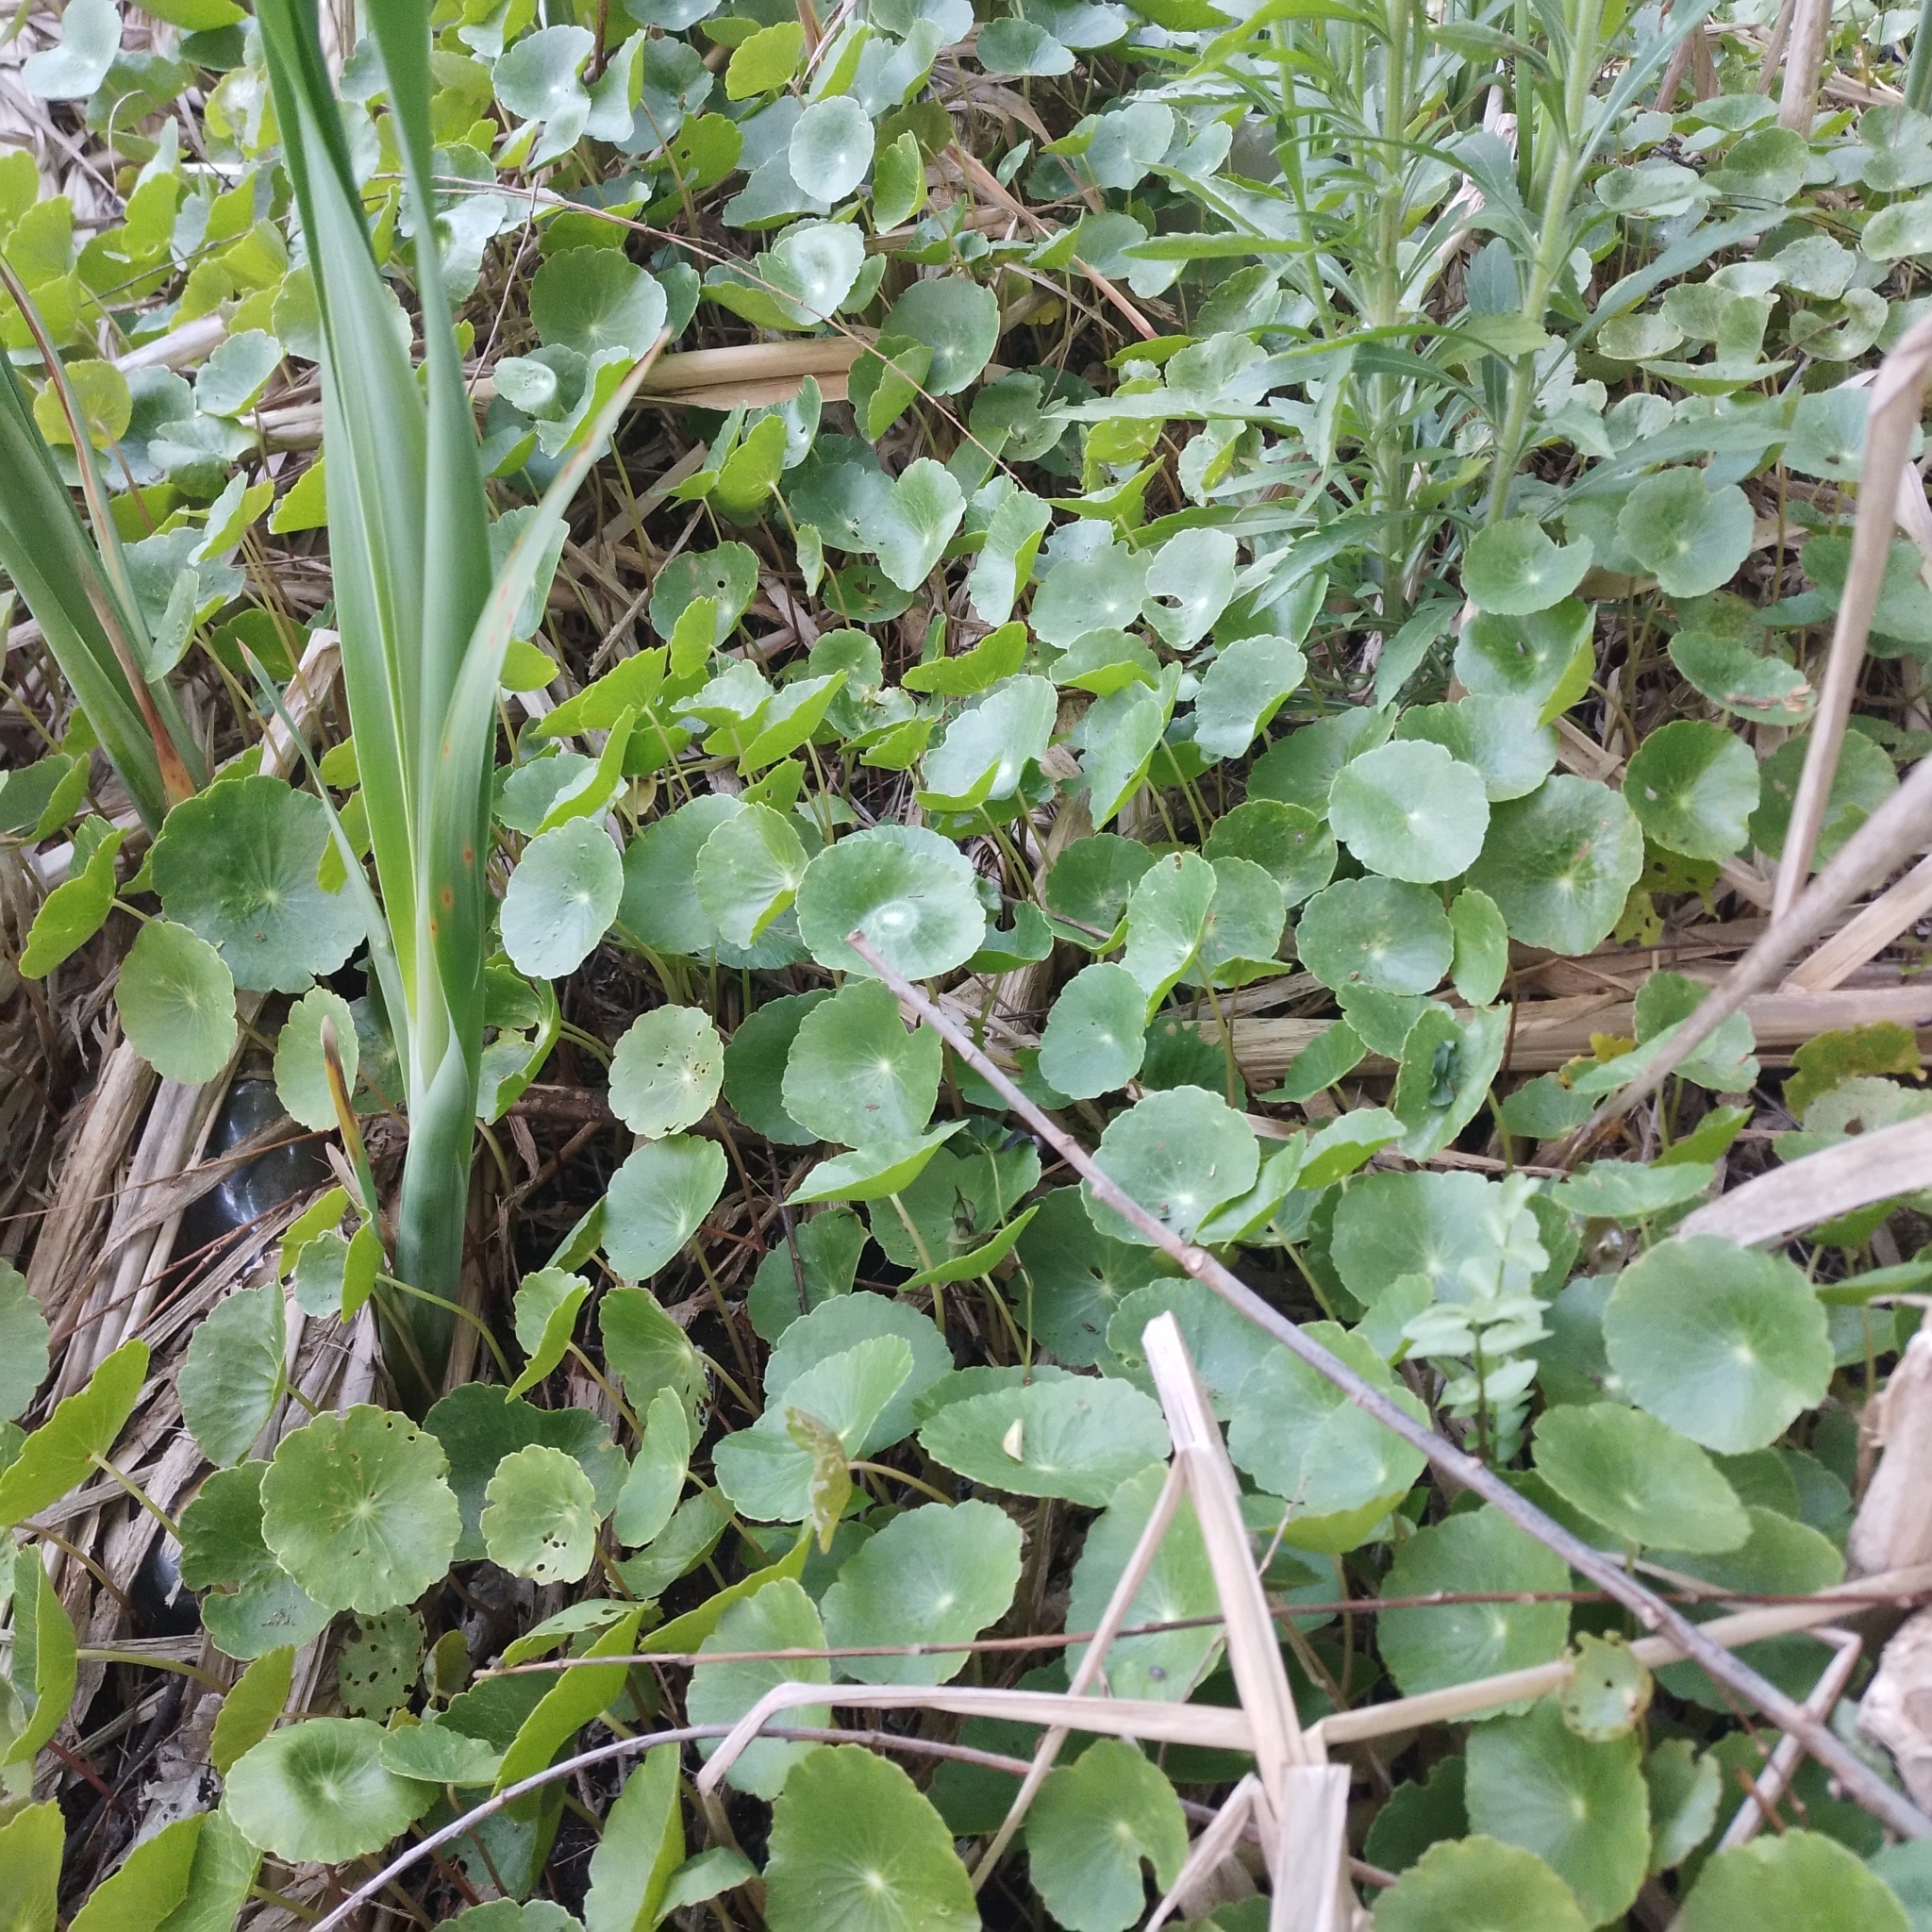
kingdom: Plantae
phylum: Tracheophyta
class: Magnoliopsida
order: Apiales
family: Araliaceae
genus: Hydrocotyle
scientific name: Hydrocotyle bonariensis
